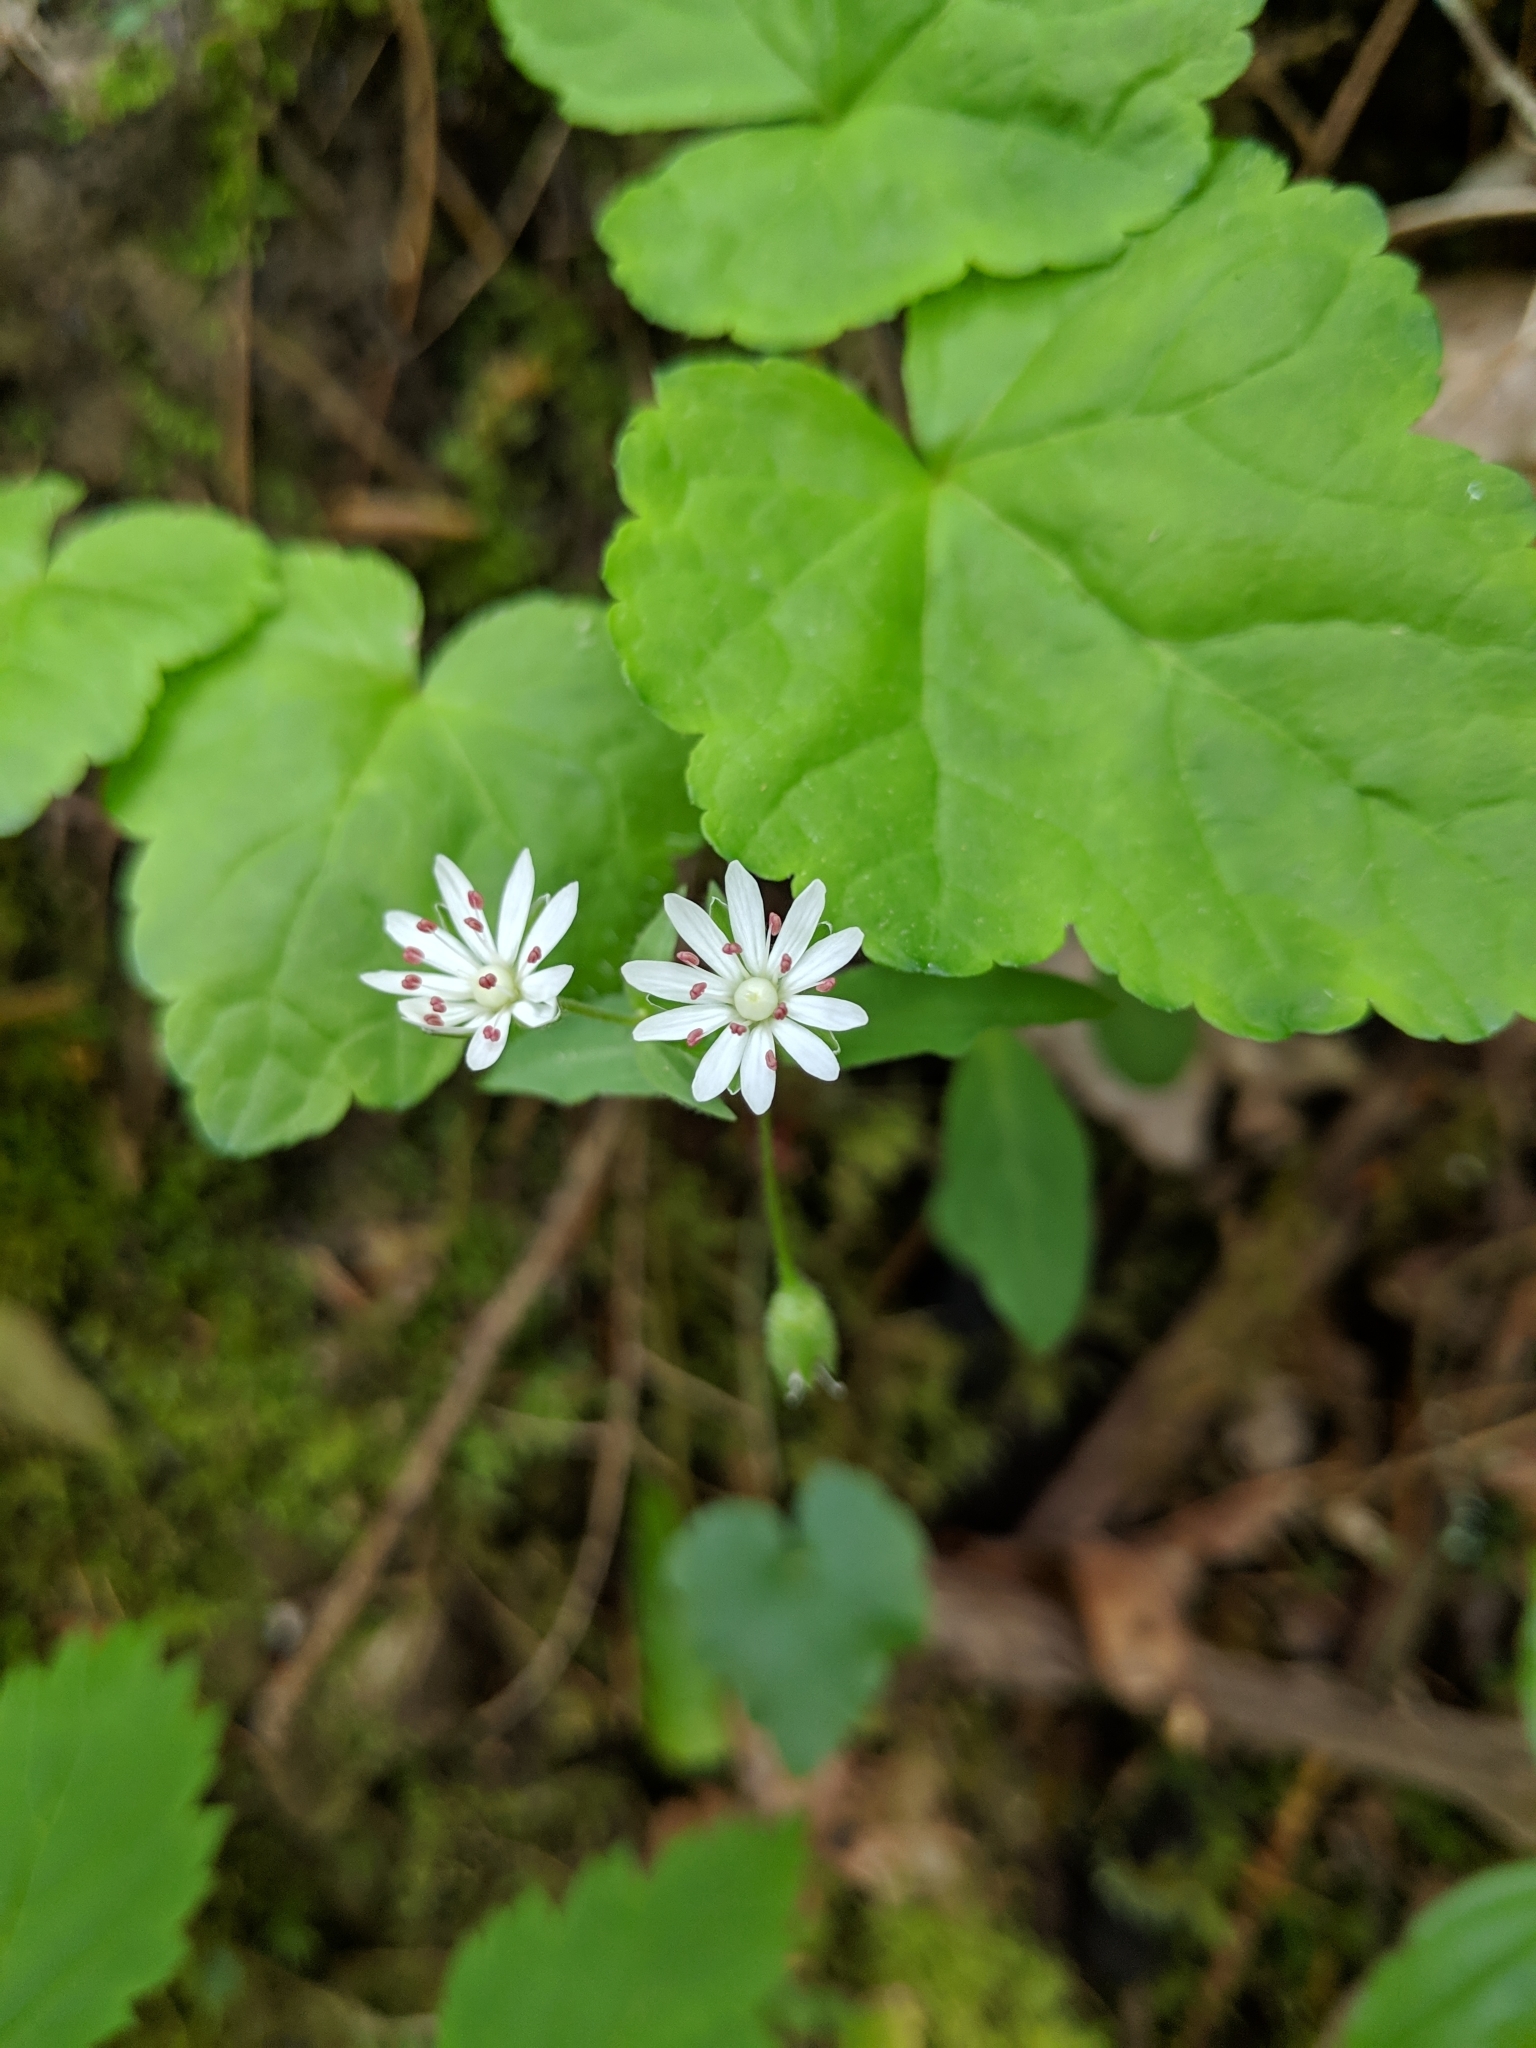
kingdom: Plantae
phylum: Tracheophyta
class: Magnoliopsida
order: Caryophyllales
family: Caryophyllaceae
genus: Stellaria
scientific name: Stellaria pubera
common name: Star chickweed
